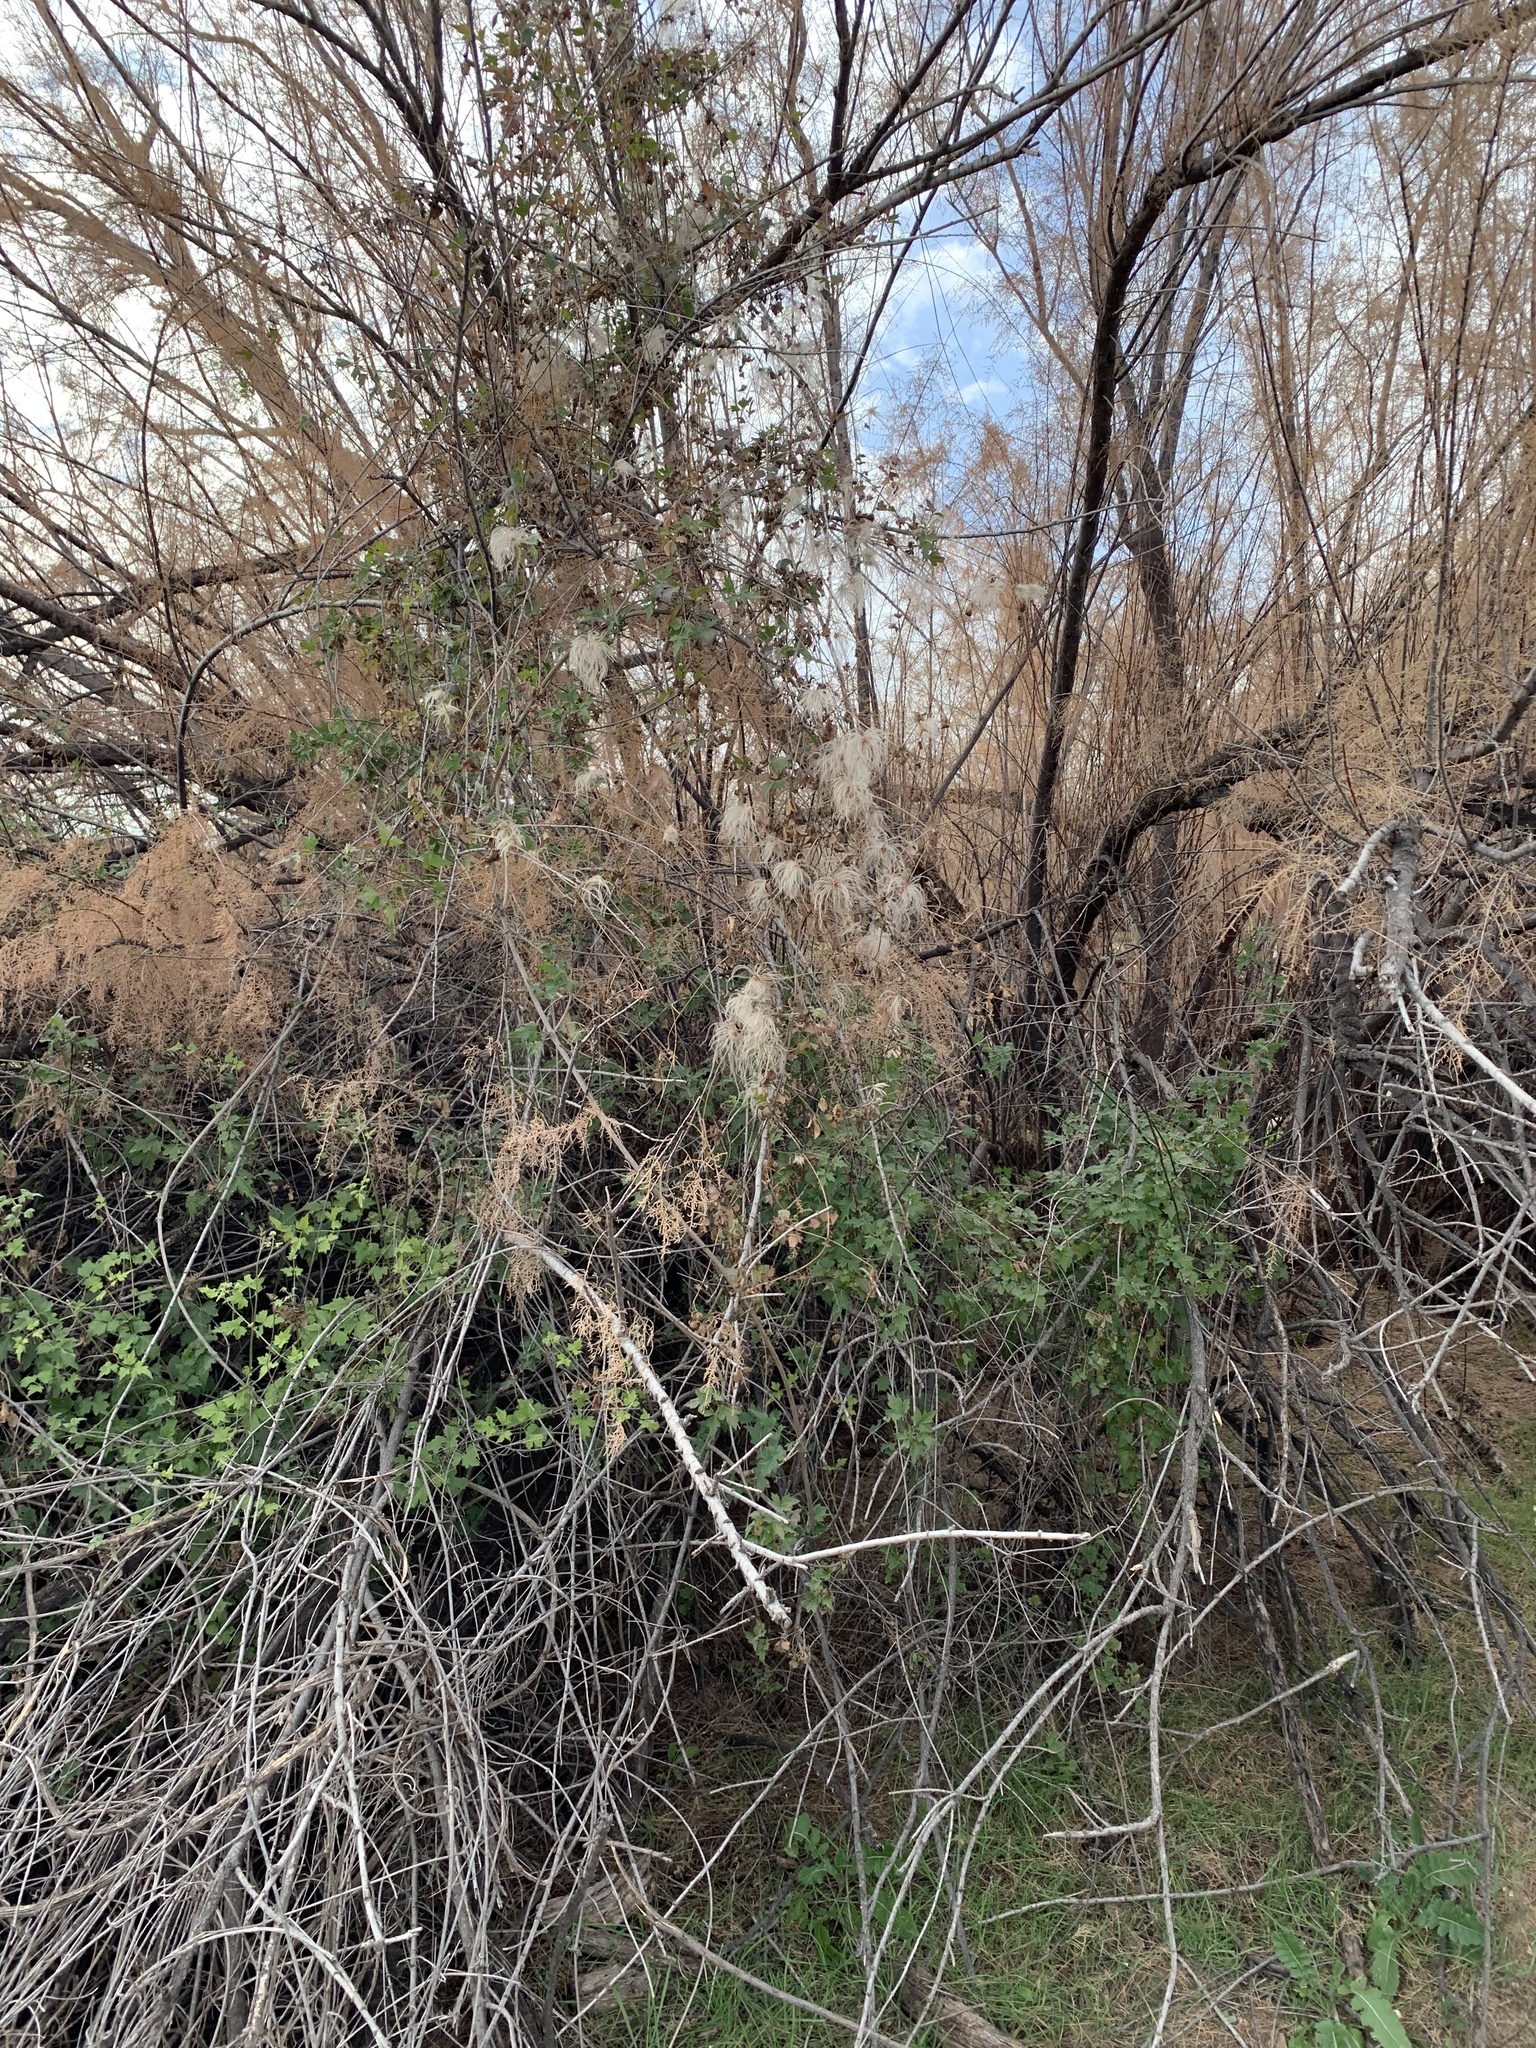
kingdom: Plantae
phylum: Tracheophyta
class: Magnoliopsida
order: Ranunculales
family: Ranunculaceae
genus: Clematis
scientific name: Clematis drummondii
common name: Texas virgin's bower
